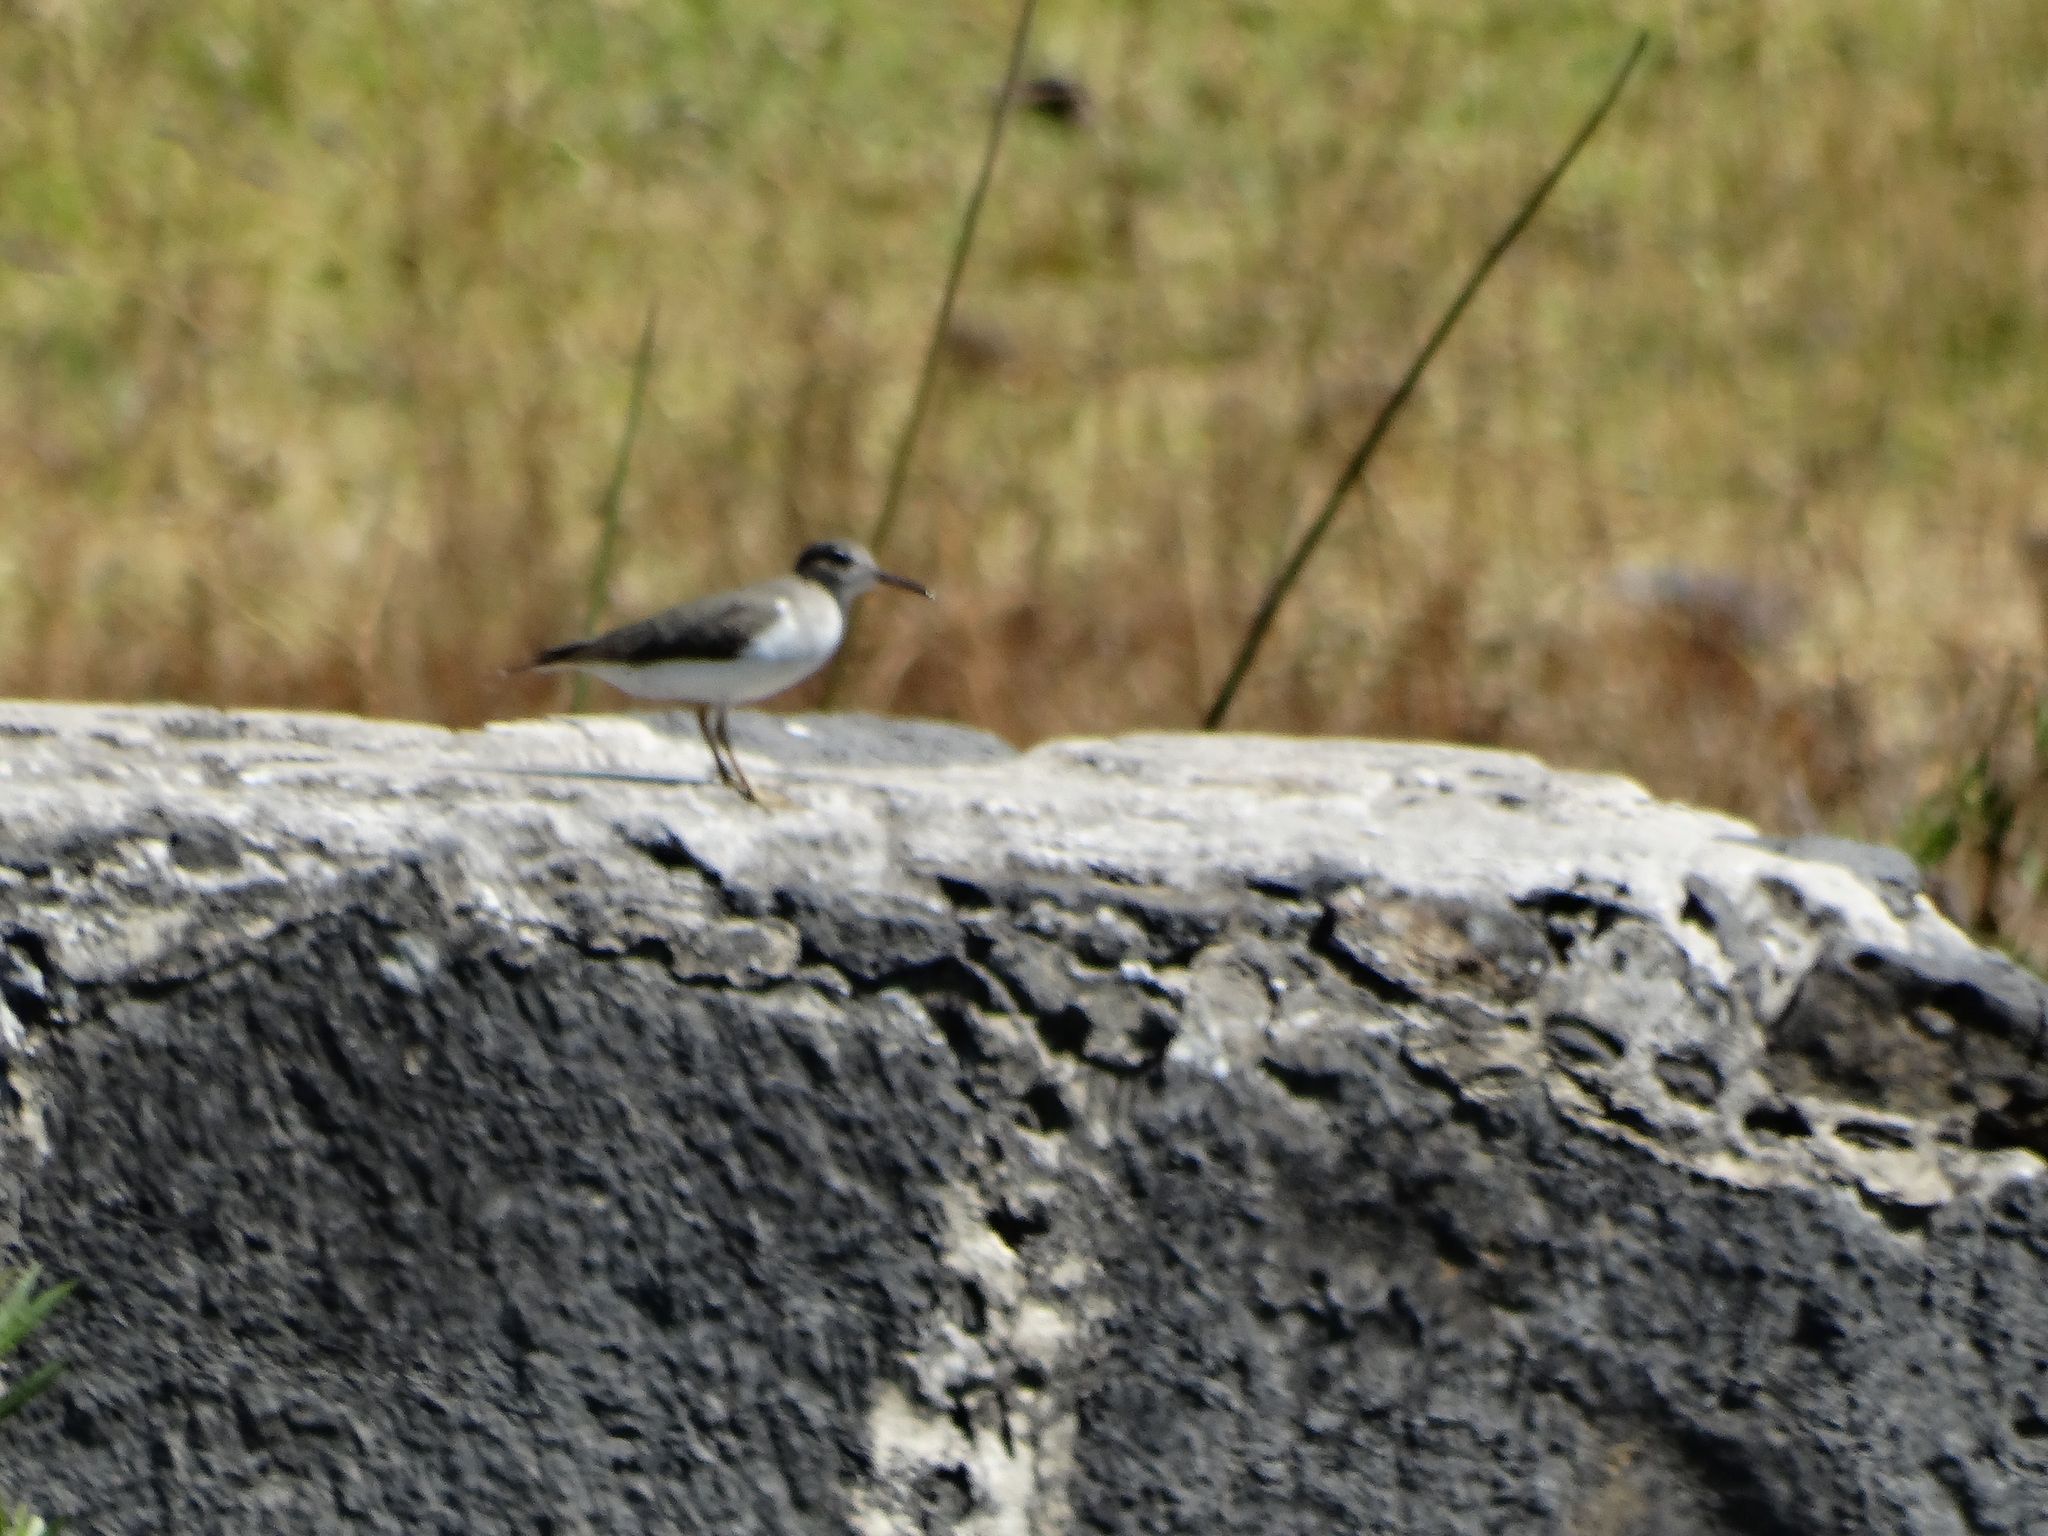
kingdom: Animalia
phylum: Chordata
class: Aves
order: Charadriiformes
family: Scolopacidae
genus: Actitis
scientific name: Actitis macularius
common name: Spotted sandpiper
